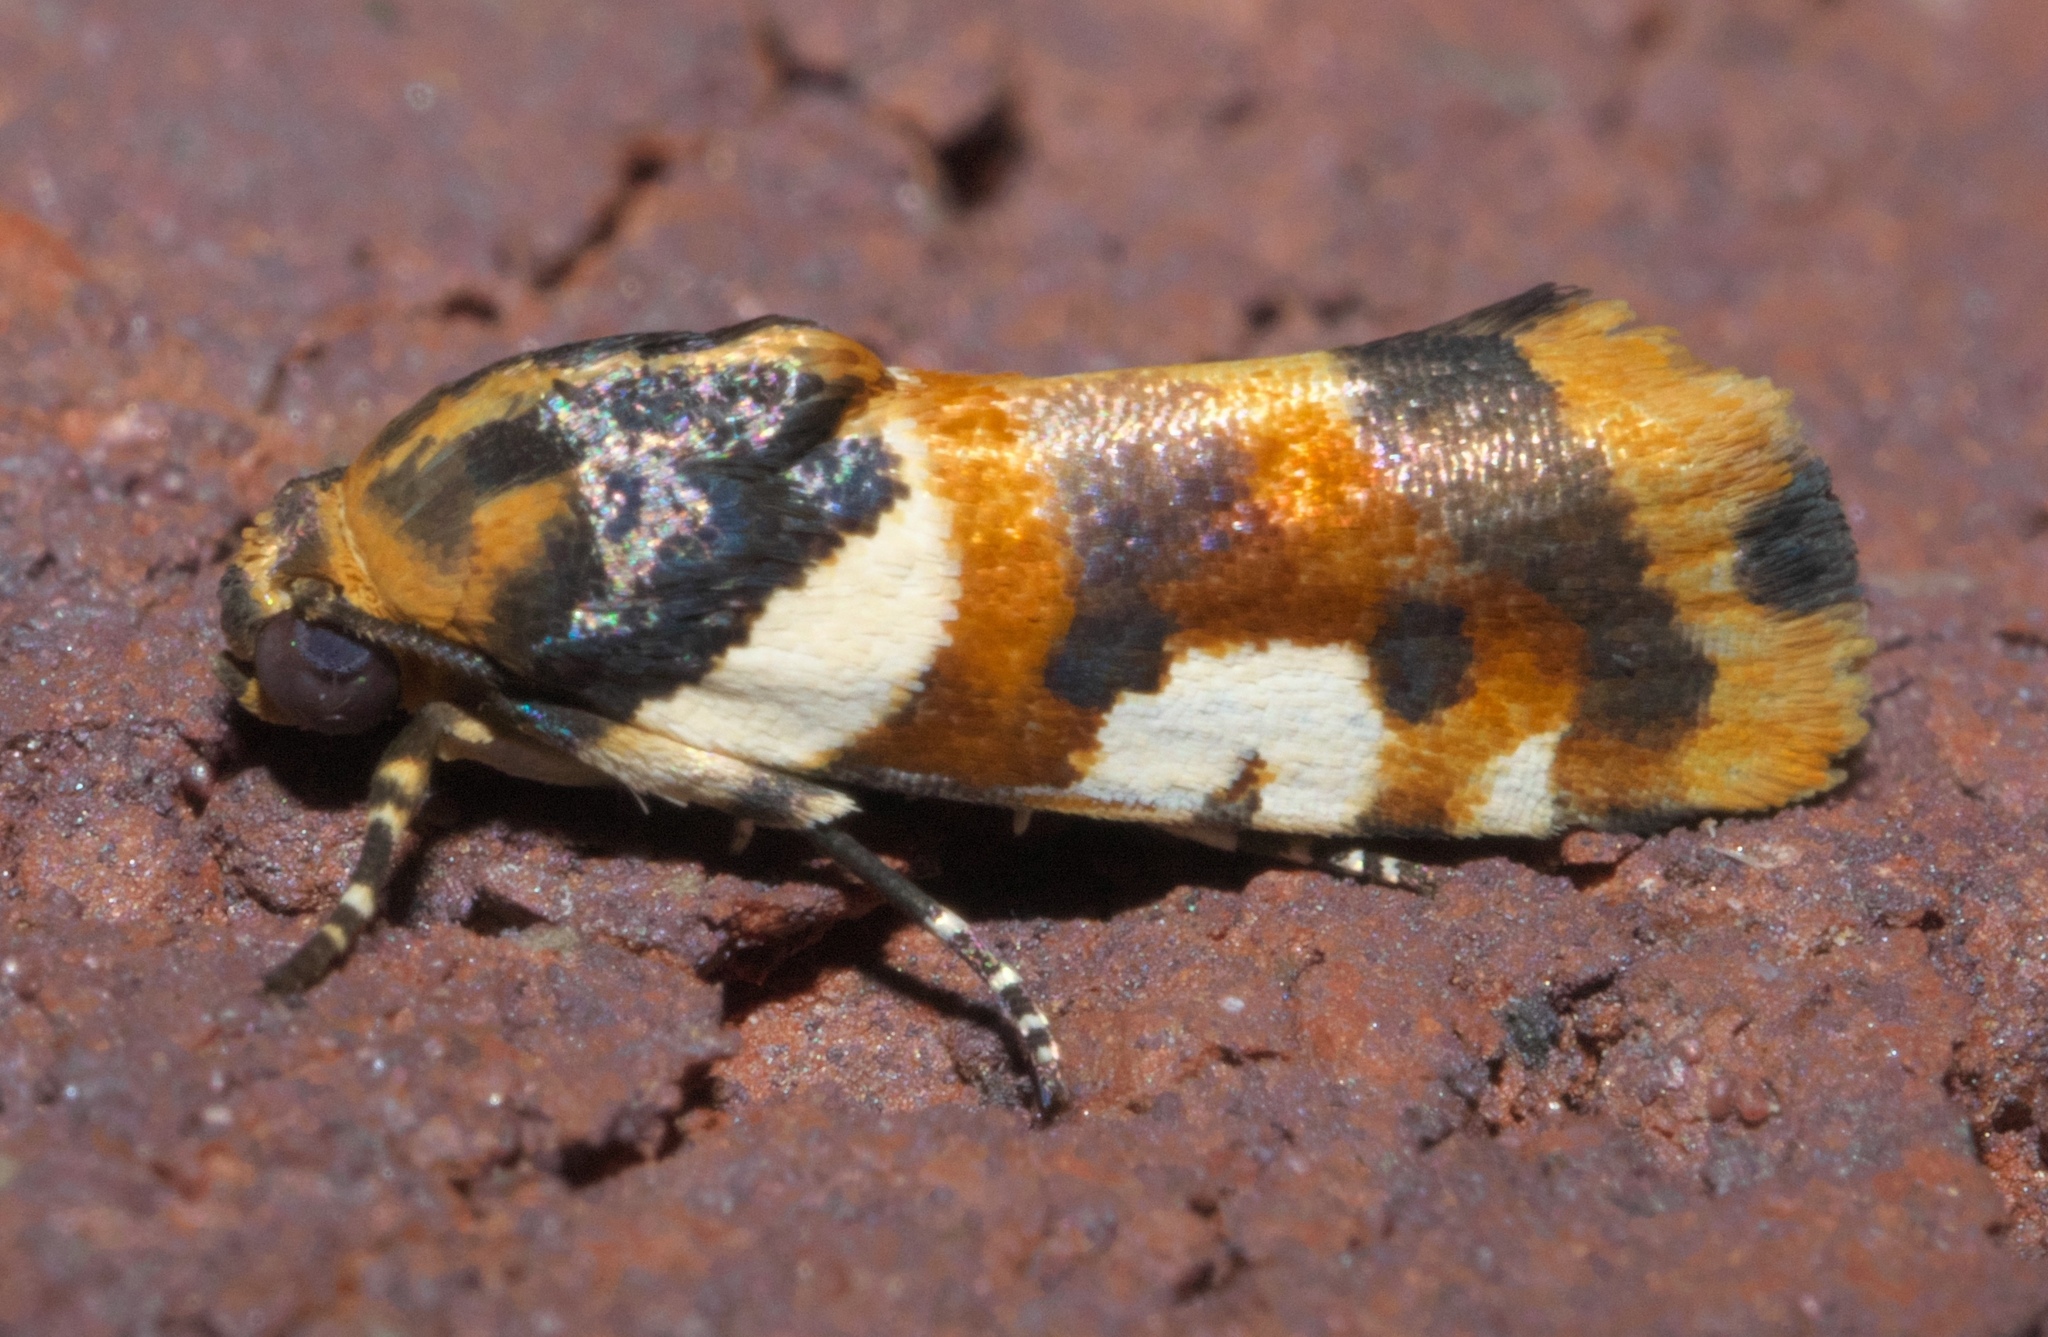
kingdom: Animalia
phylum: Arthropoda
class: Insecta
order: Lepidoptera
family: Noctuidae
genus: Acontia
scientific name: Acontia dama
